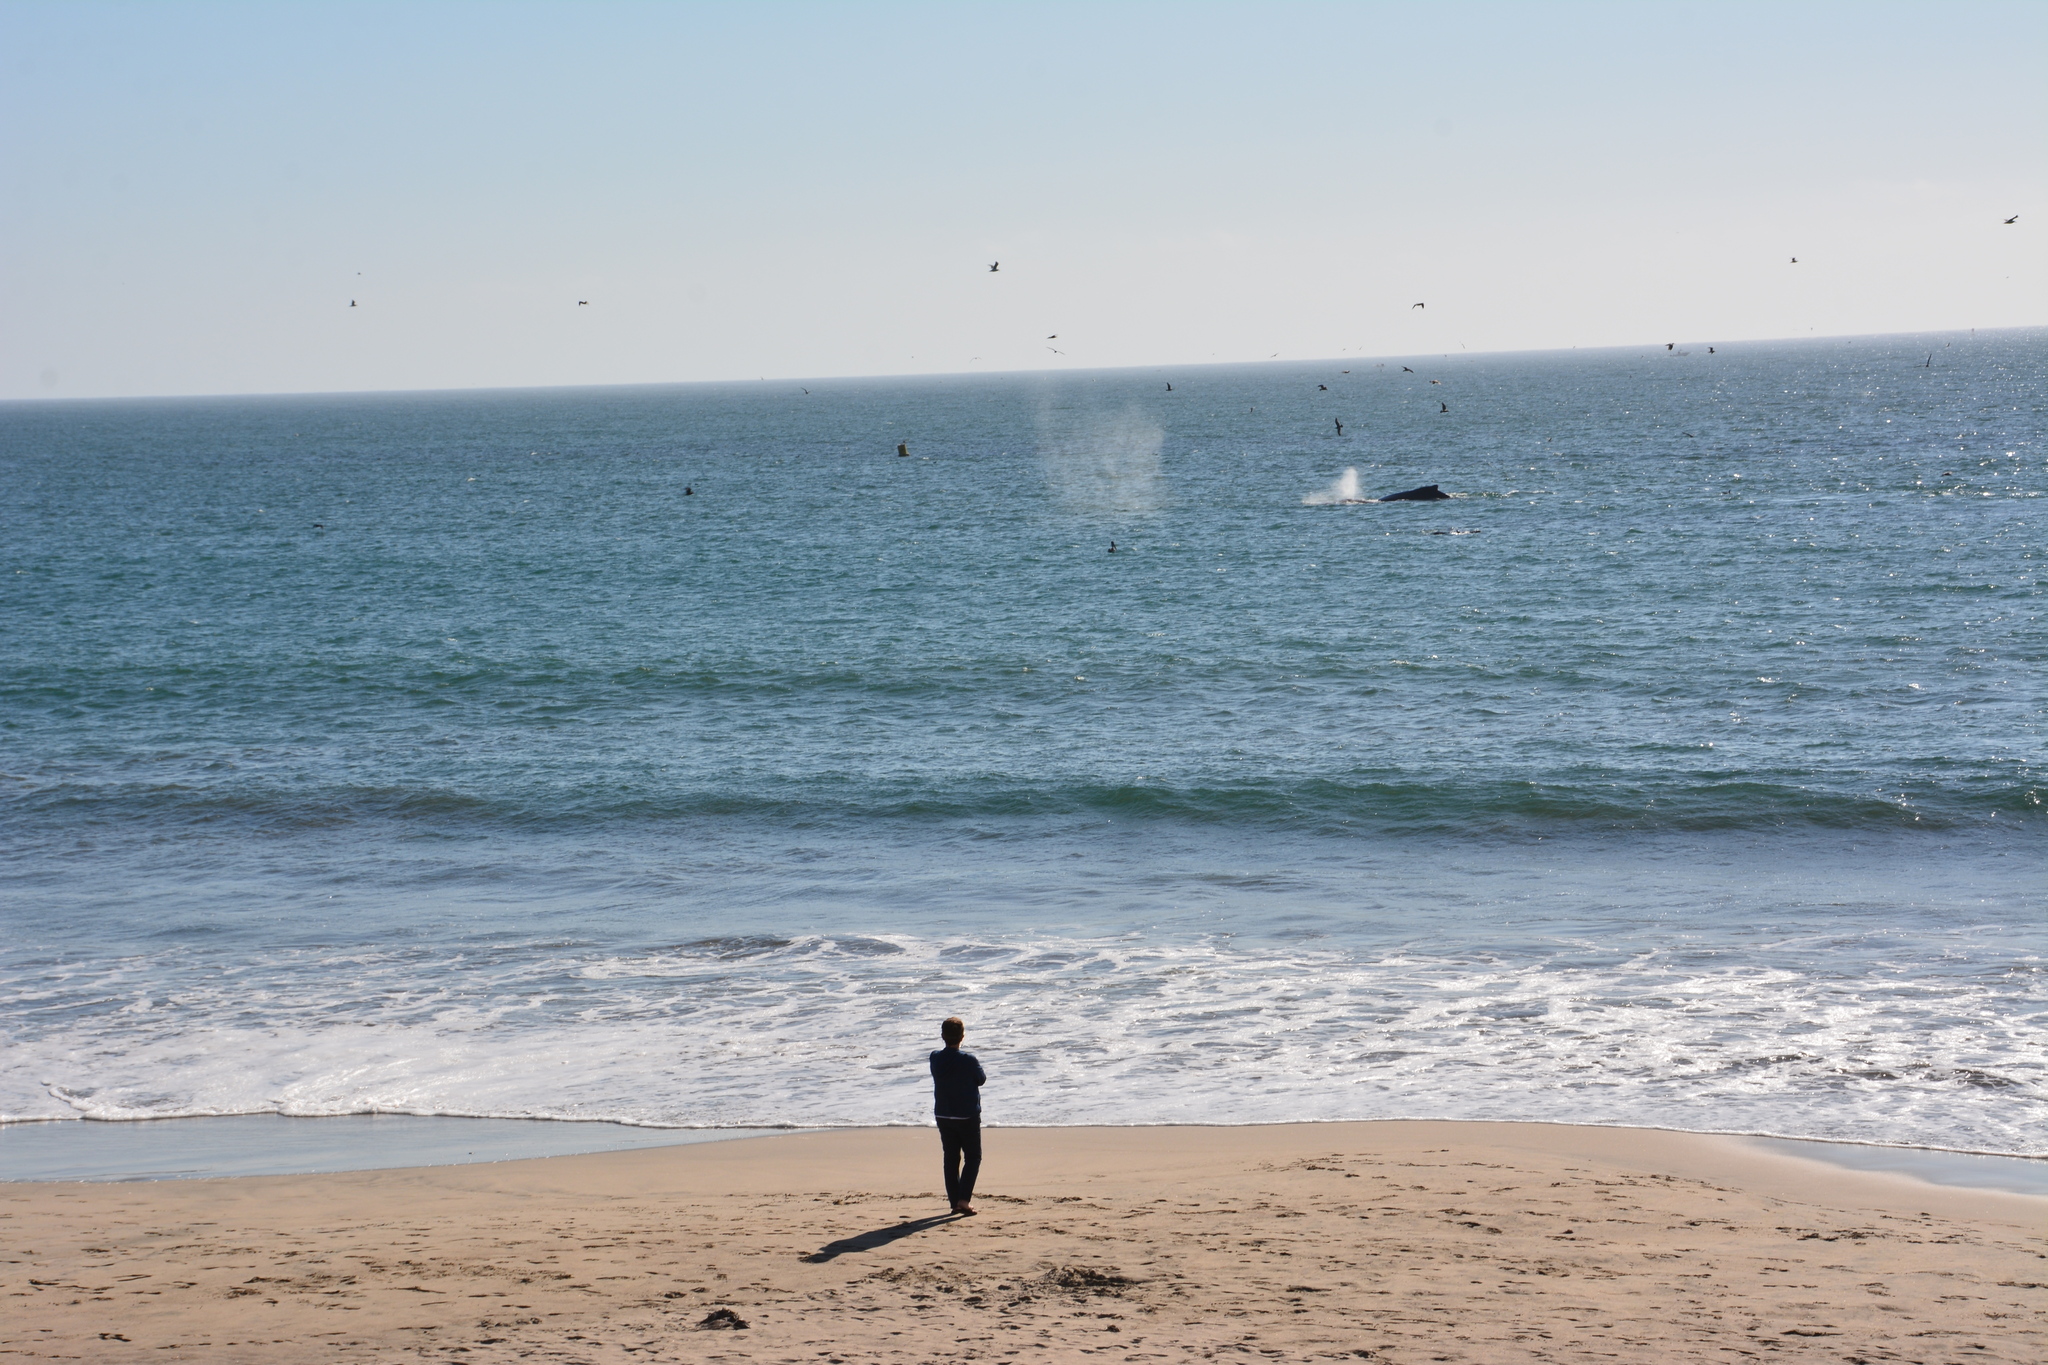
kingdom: Animalia
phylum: Chordata
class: Mammalia
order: Cetacea
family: Balaenopteridae
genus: Megaptera
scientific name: Megaptera novaeangliae
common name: Humpback whale
